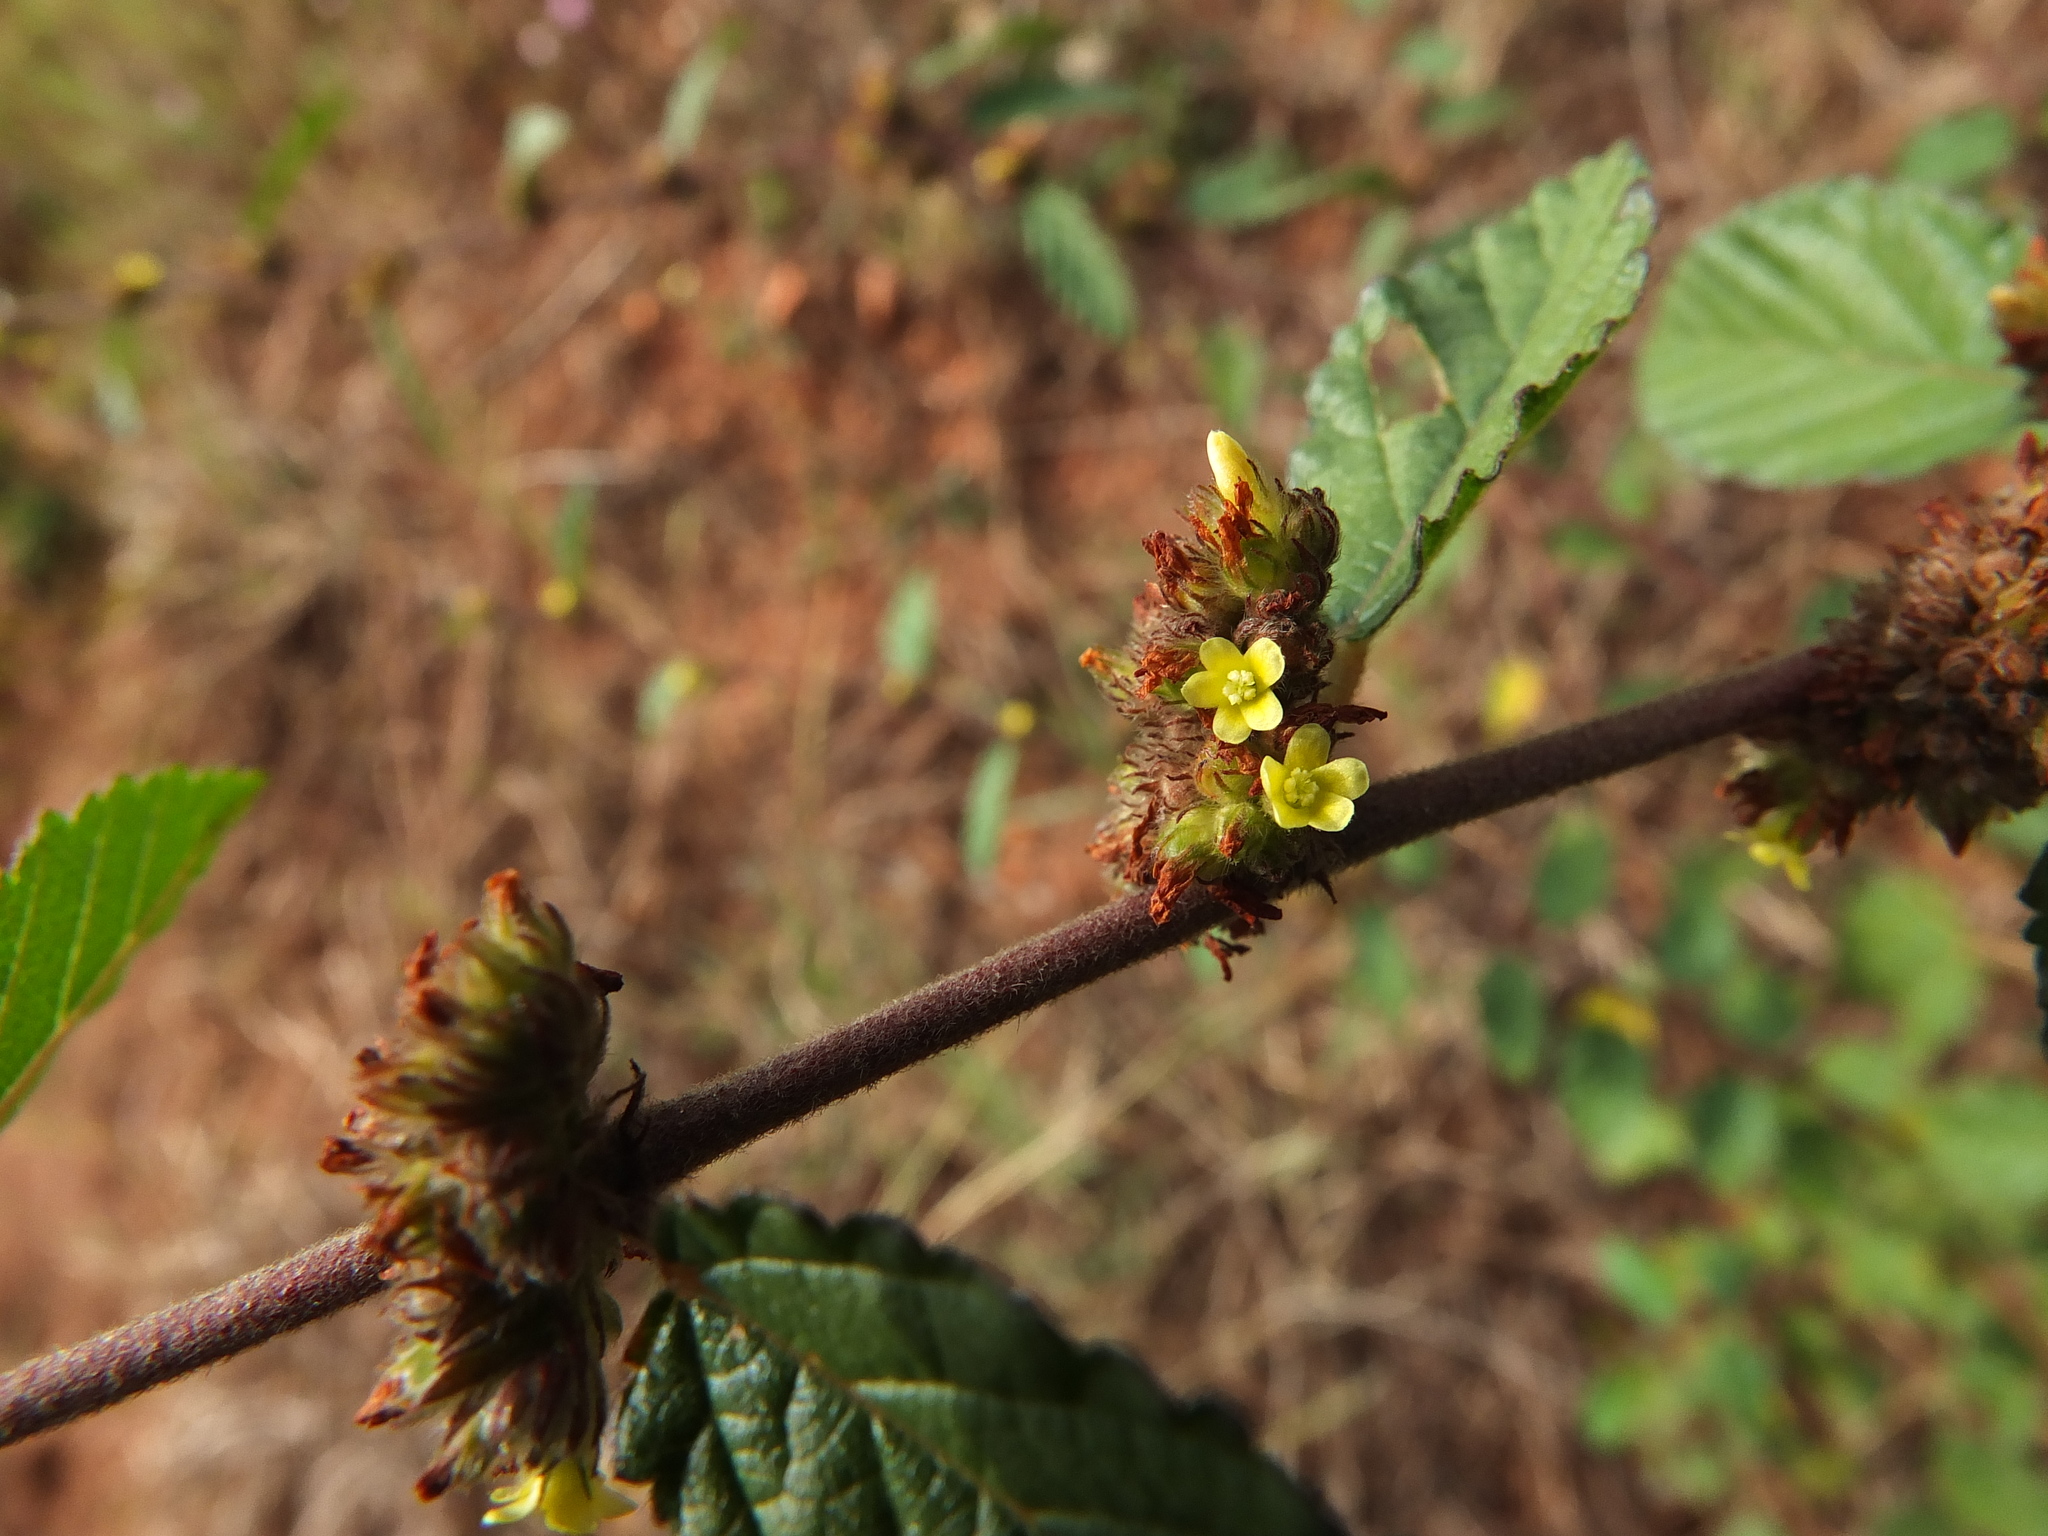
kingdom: Plantae
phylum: Tracheophyta
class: Magnoliopsida
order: Malvales
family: Malvaceae
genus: Waltheria
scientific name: Waltheria indica
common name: Leather-coat
